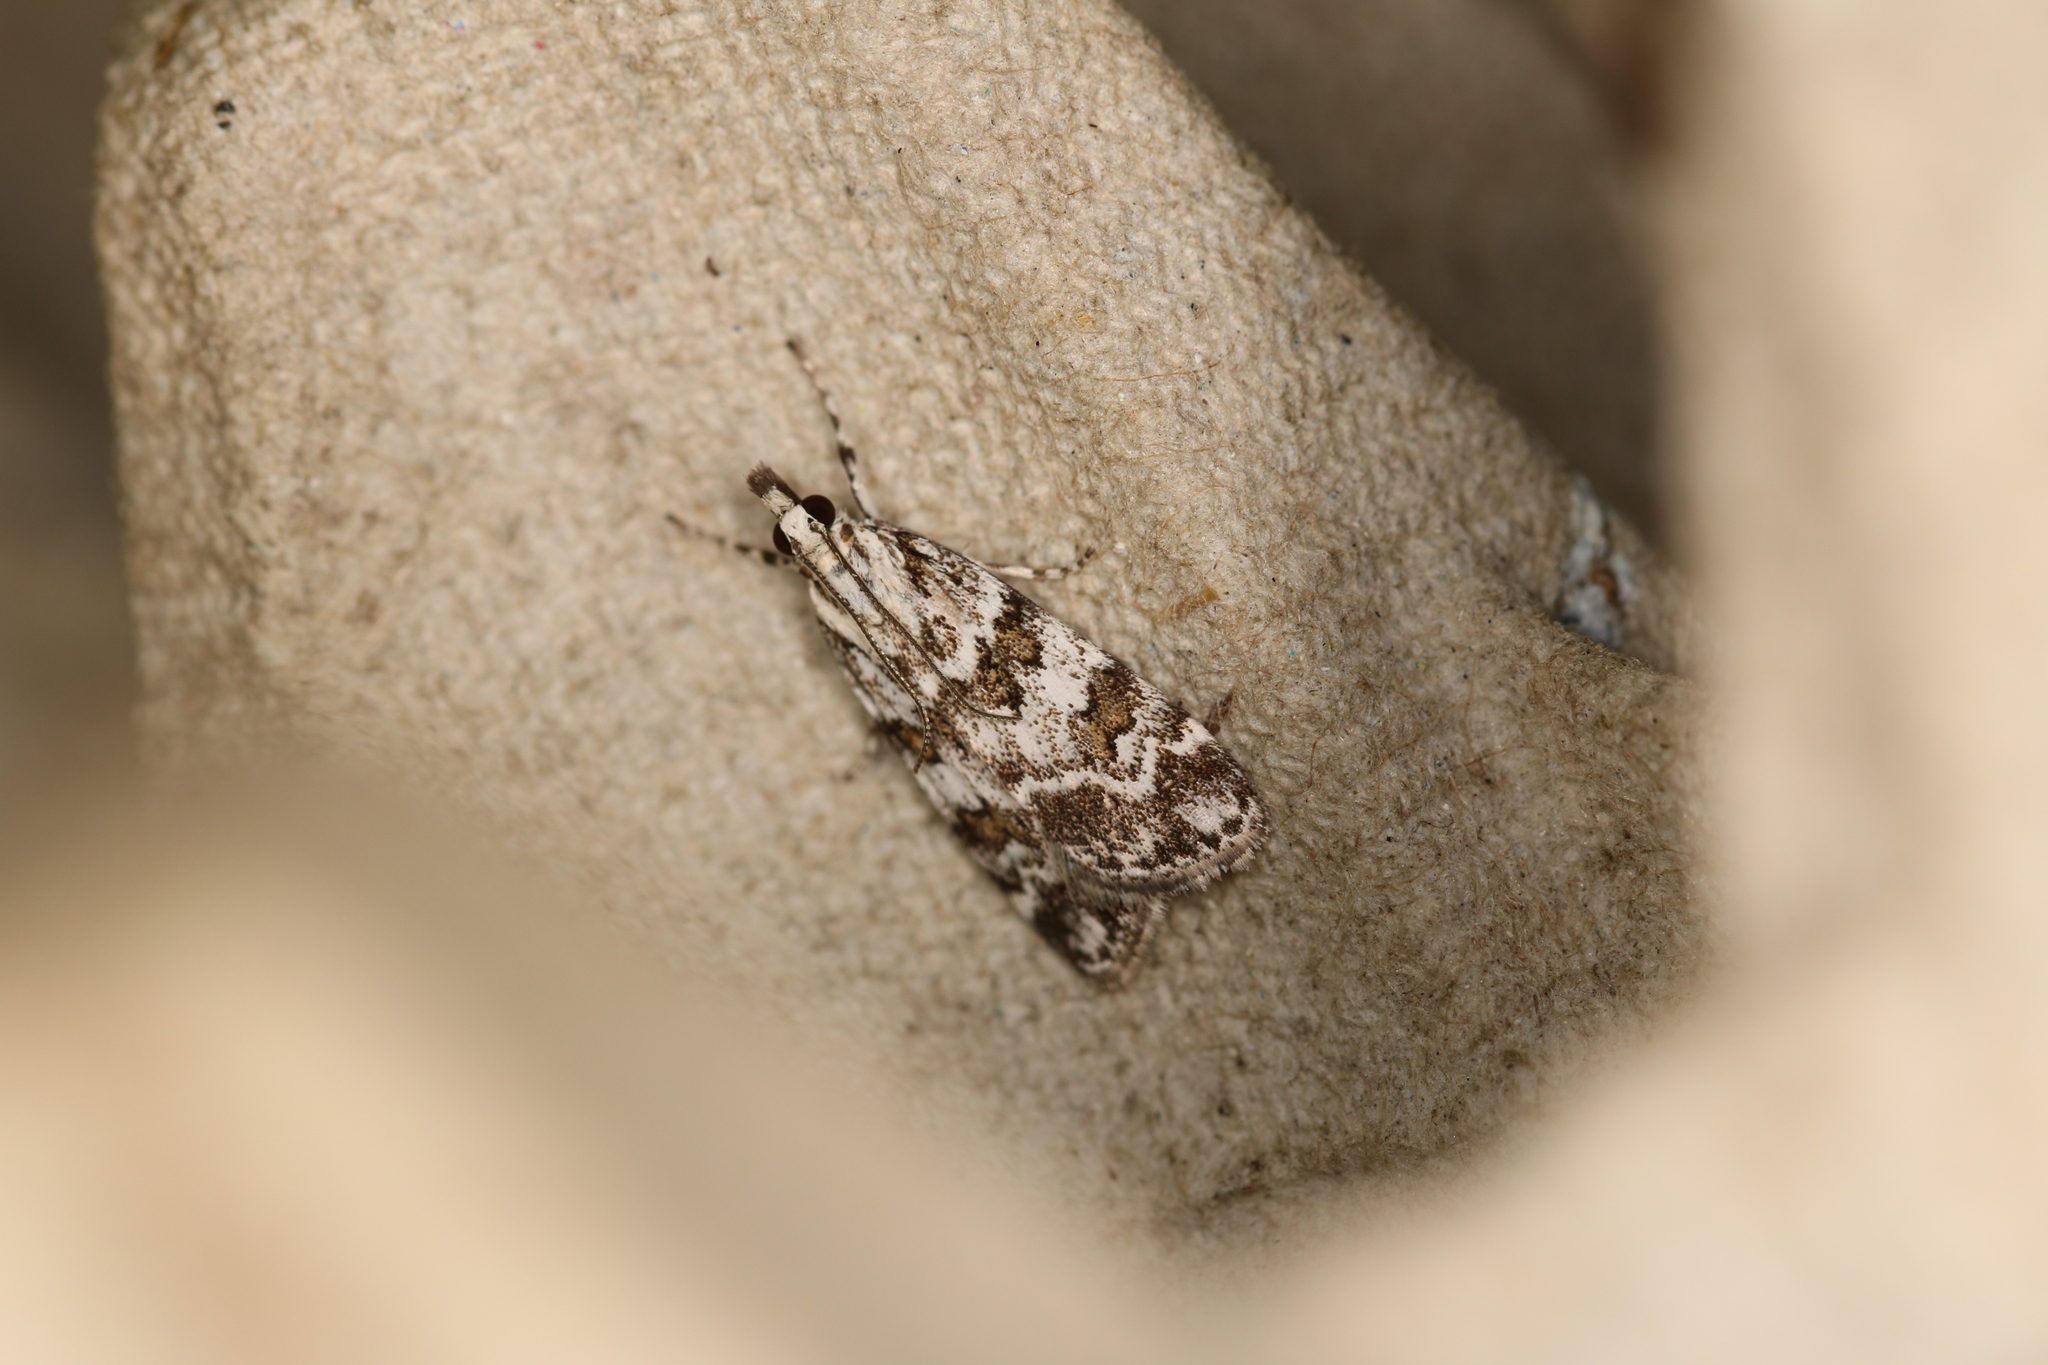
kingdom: Animalia
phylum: Arthropoda
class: Insecta
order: Lepidoptera
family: Crambidae
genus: Scoparia
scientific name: Scoparia pyralella
